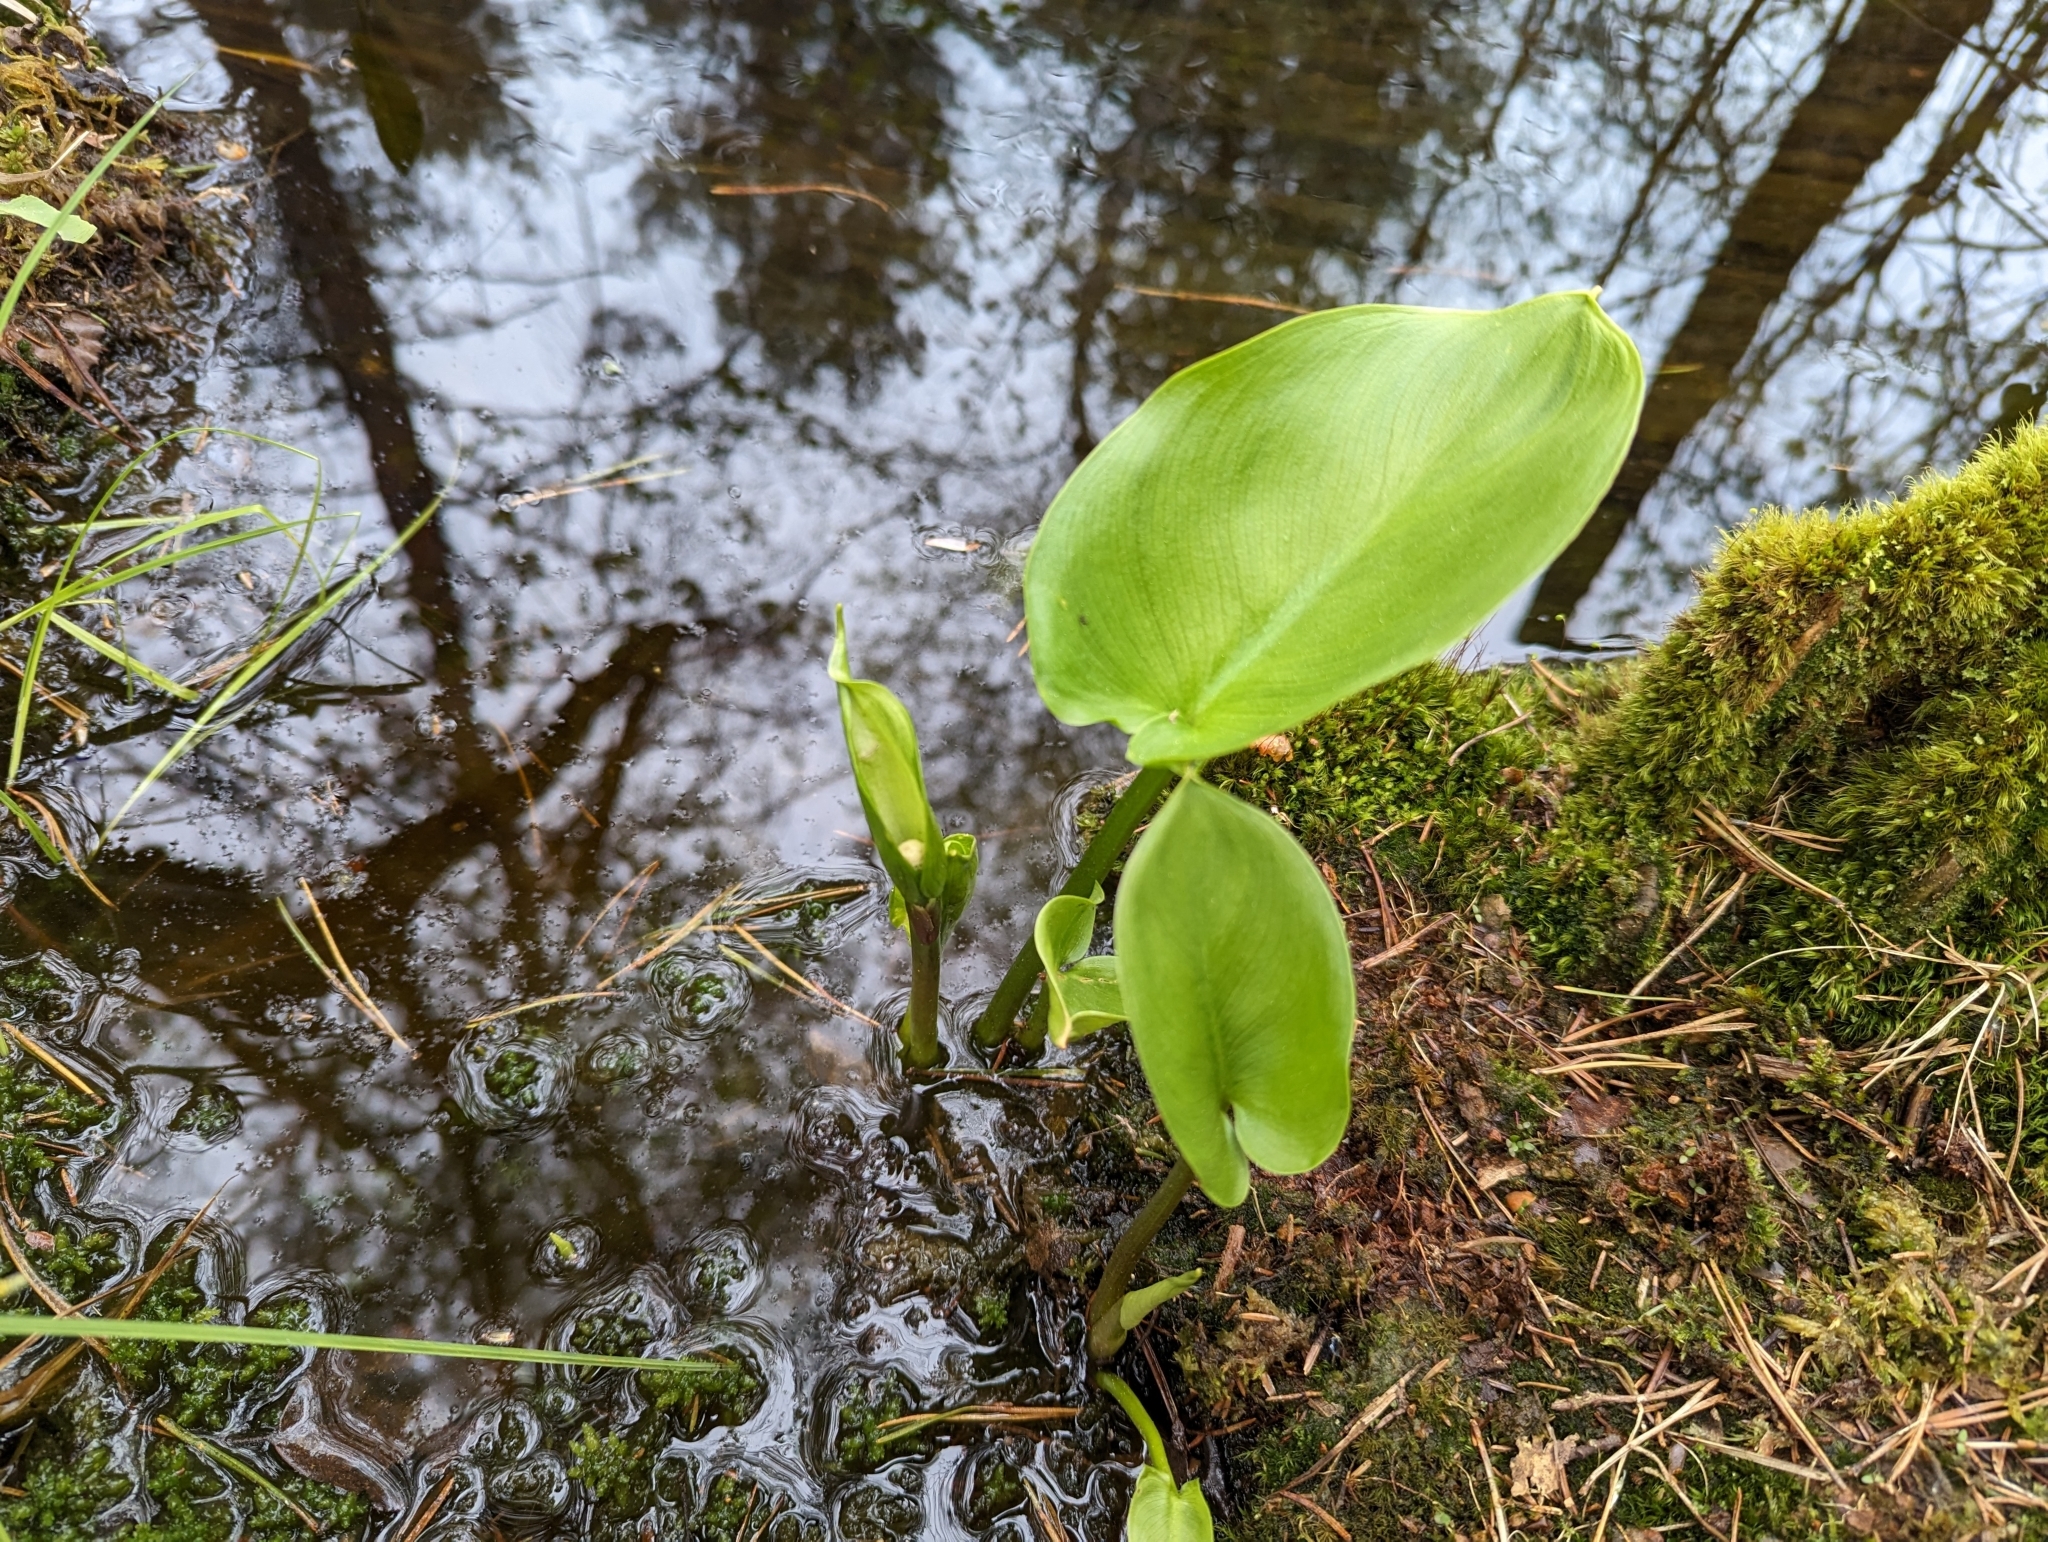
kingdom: Plantae
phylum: Tracheophyta
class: Liliopsida
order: Alismatales
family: Araceae
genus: Calla
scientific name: Calla palustris
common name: Bog arum
